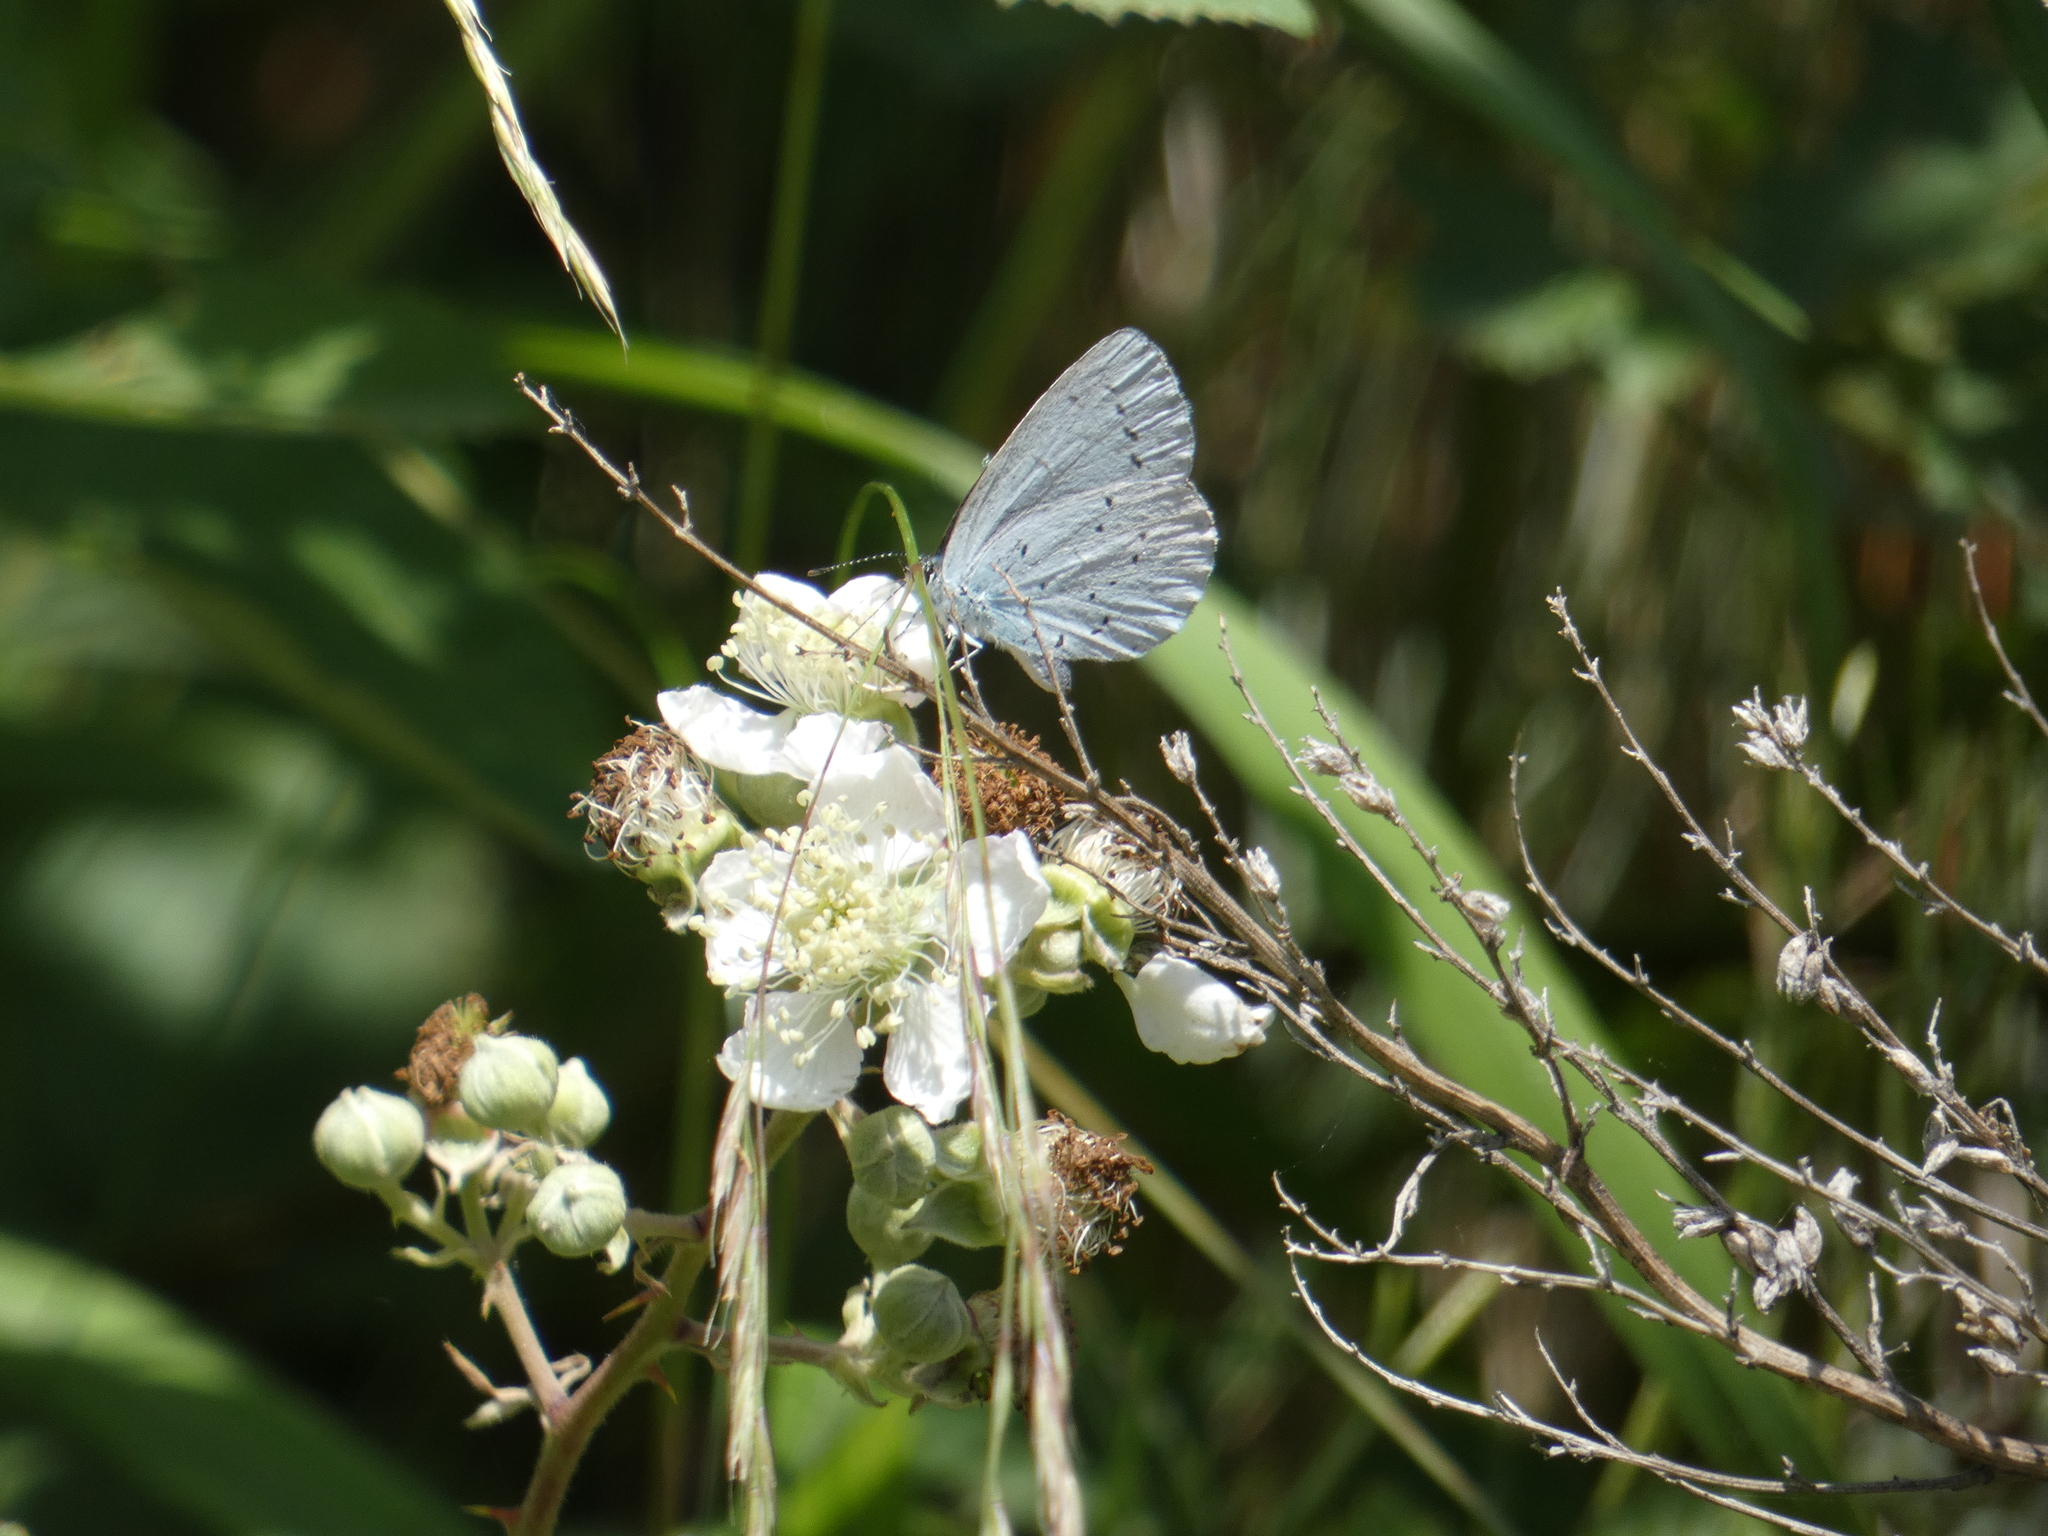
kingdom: Animalia
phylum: Arthropoda
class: Insecta
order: Lepidoptera
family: Lycaenidae
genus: Celastrina
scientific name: Celastrina argiolus
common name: Holly blue
